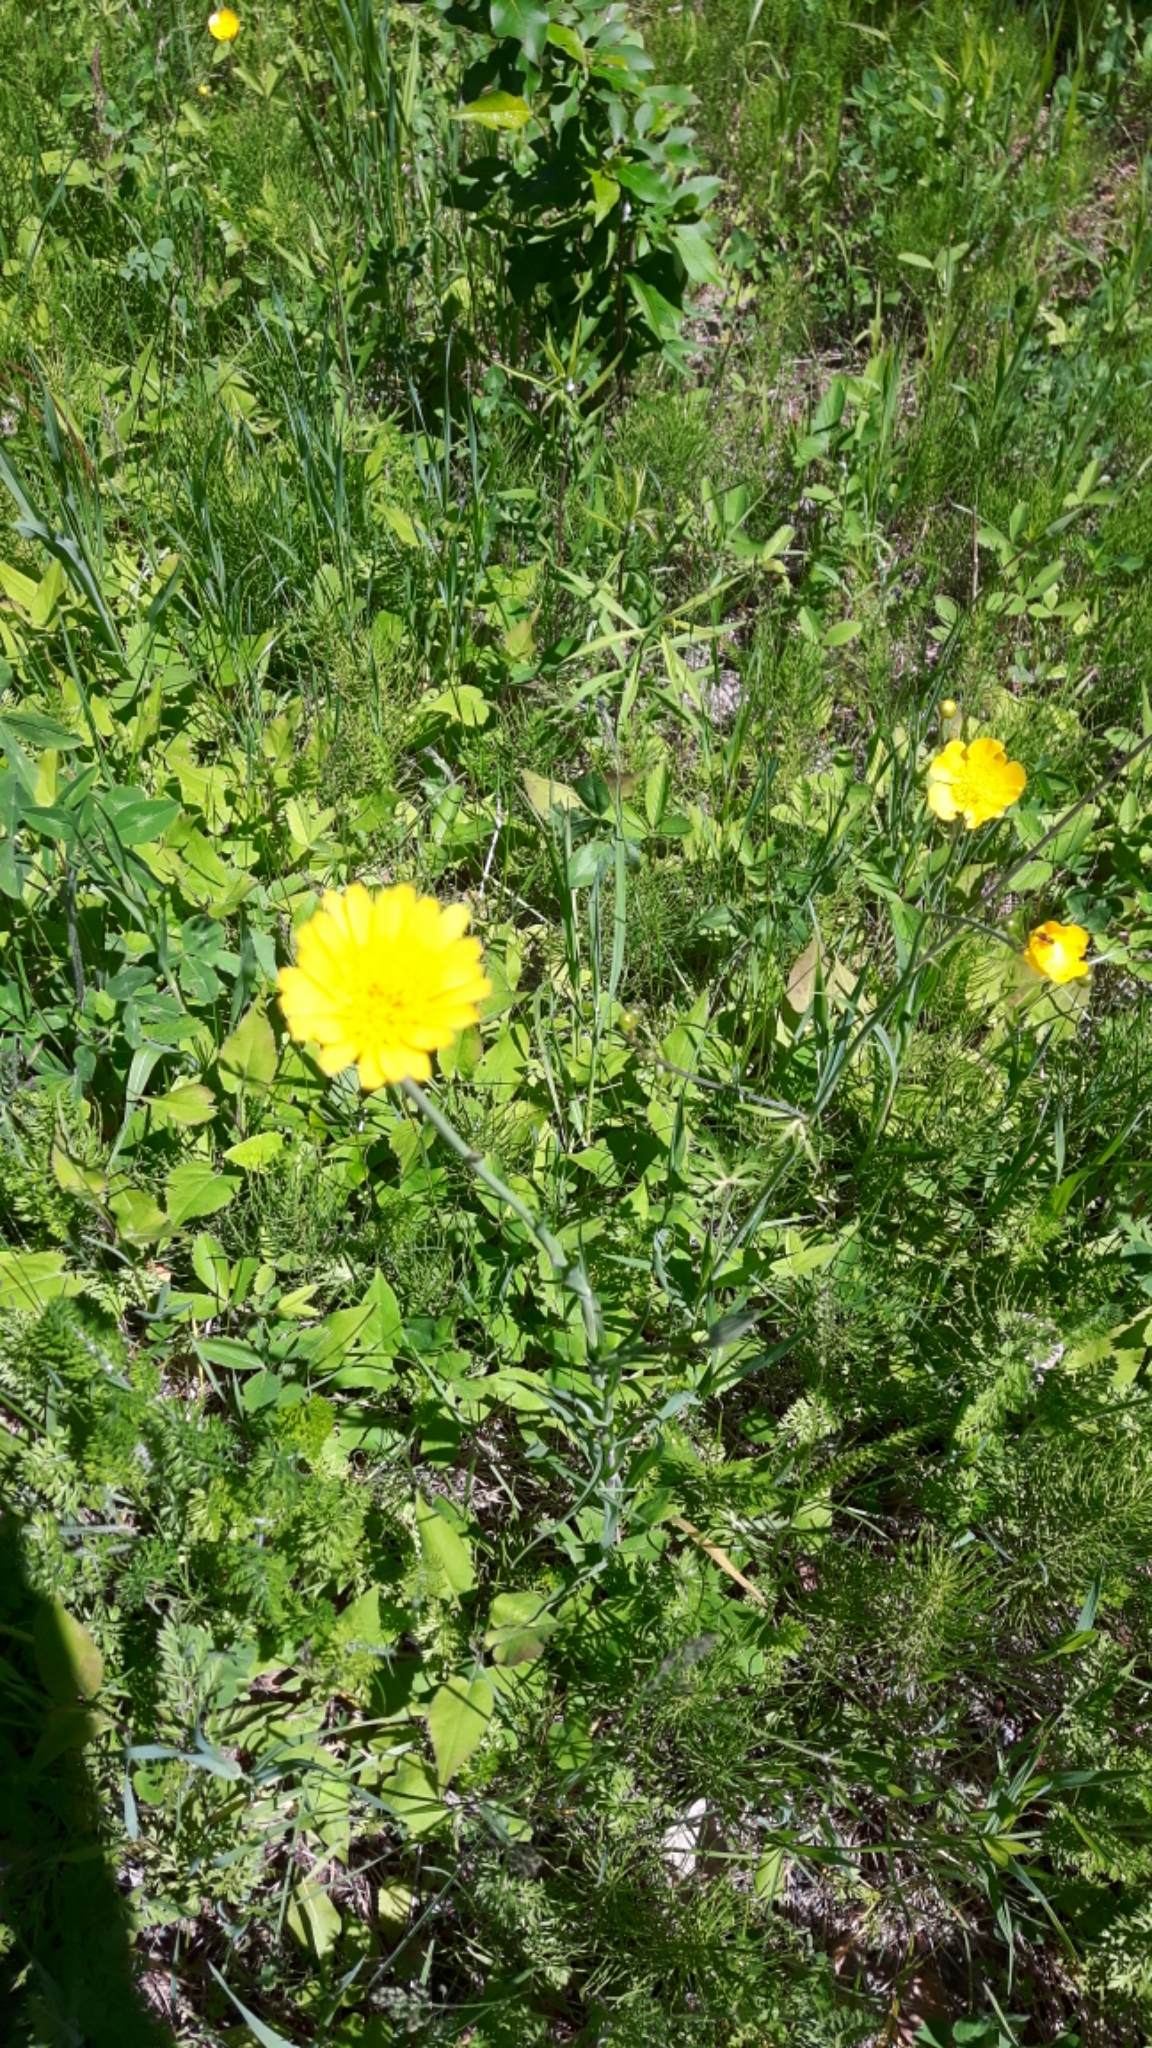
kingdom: Plantae
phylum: Tracheophyta
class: Magnoliopsida
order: Asterales
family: Asteraceae
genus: Tragopogon
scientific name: Tragopogon pratensis
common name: Goat's-beard
